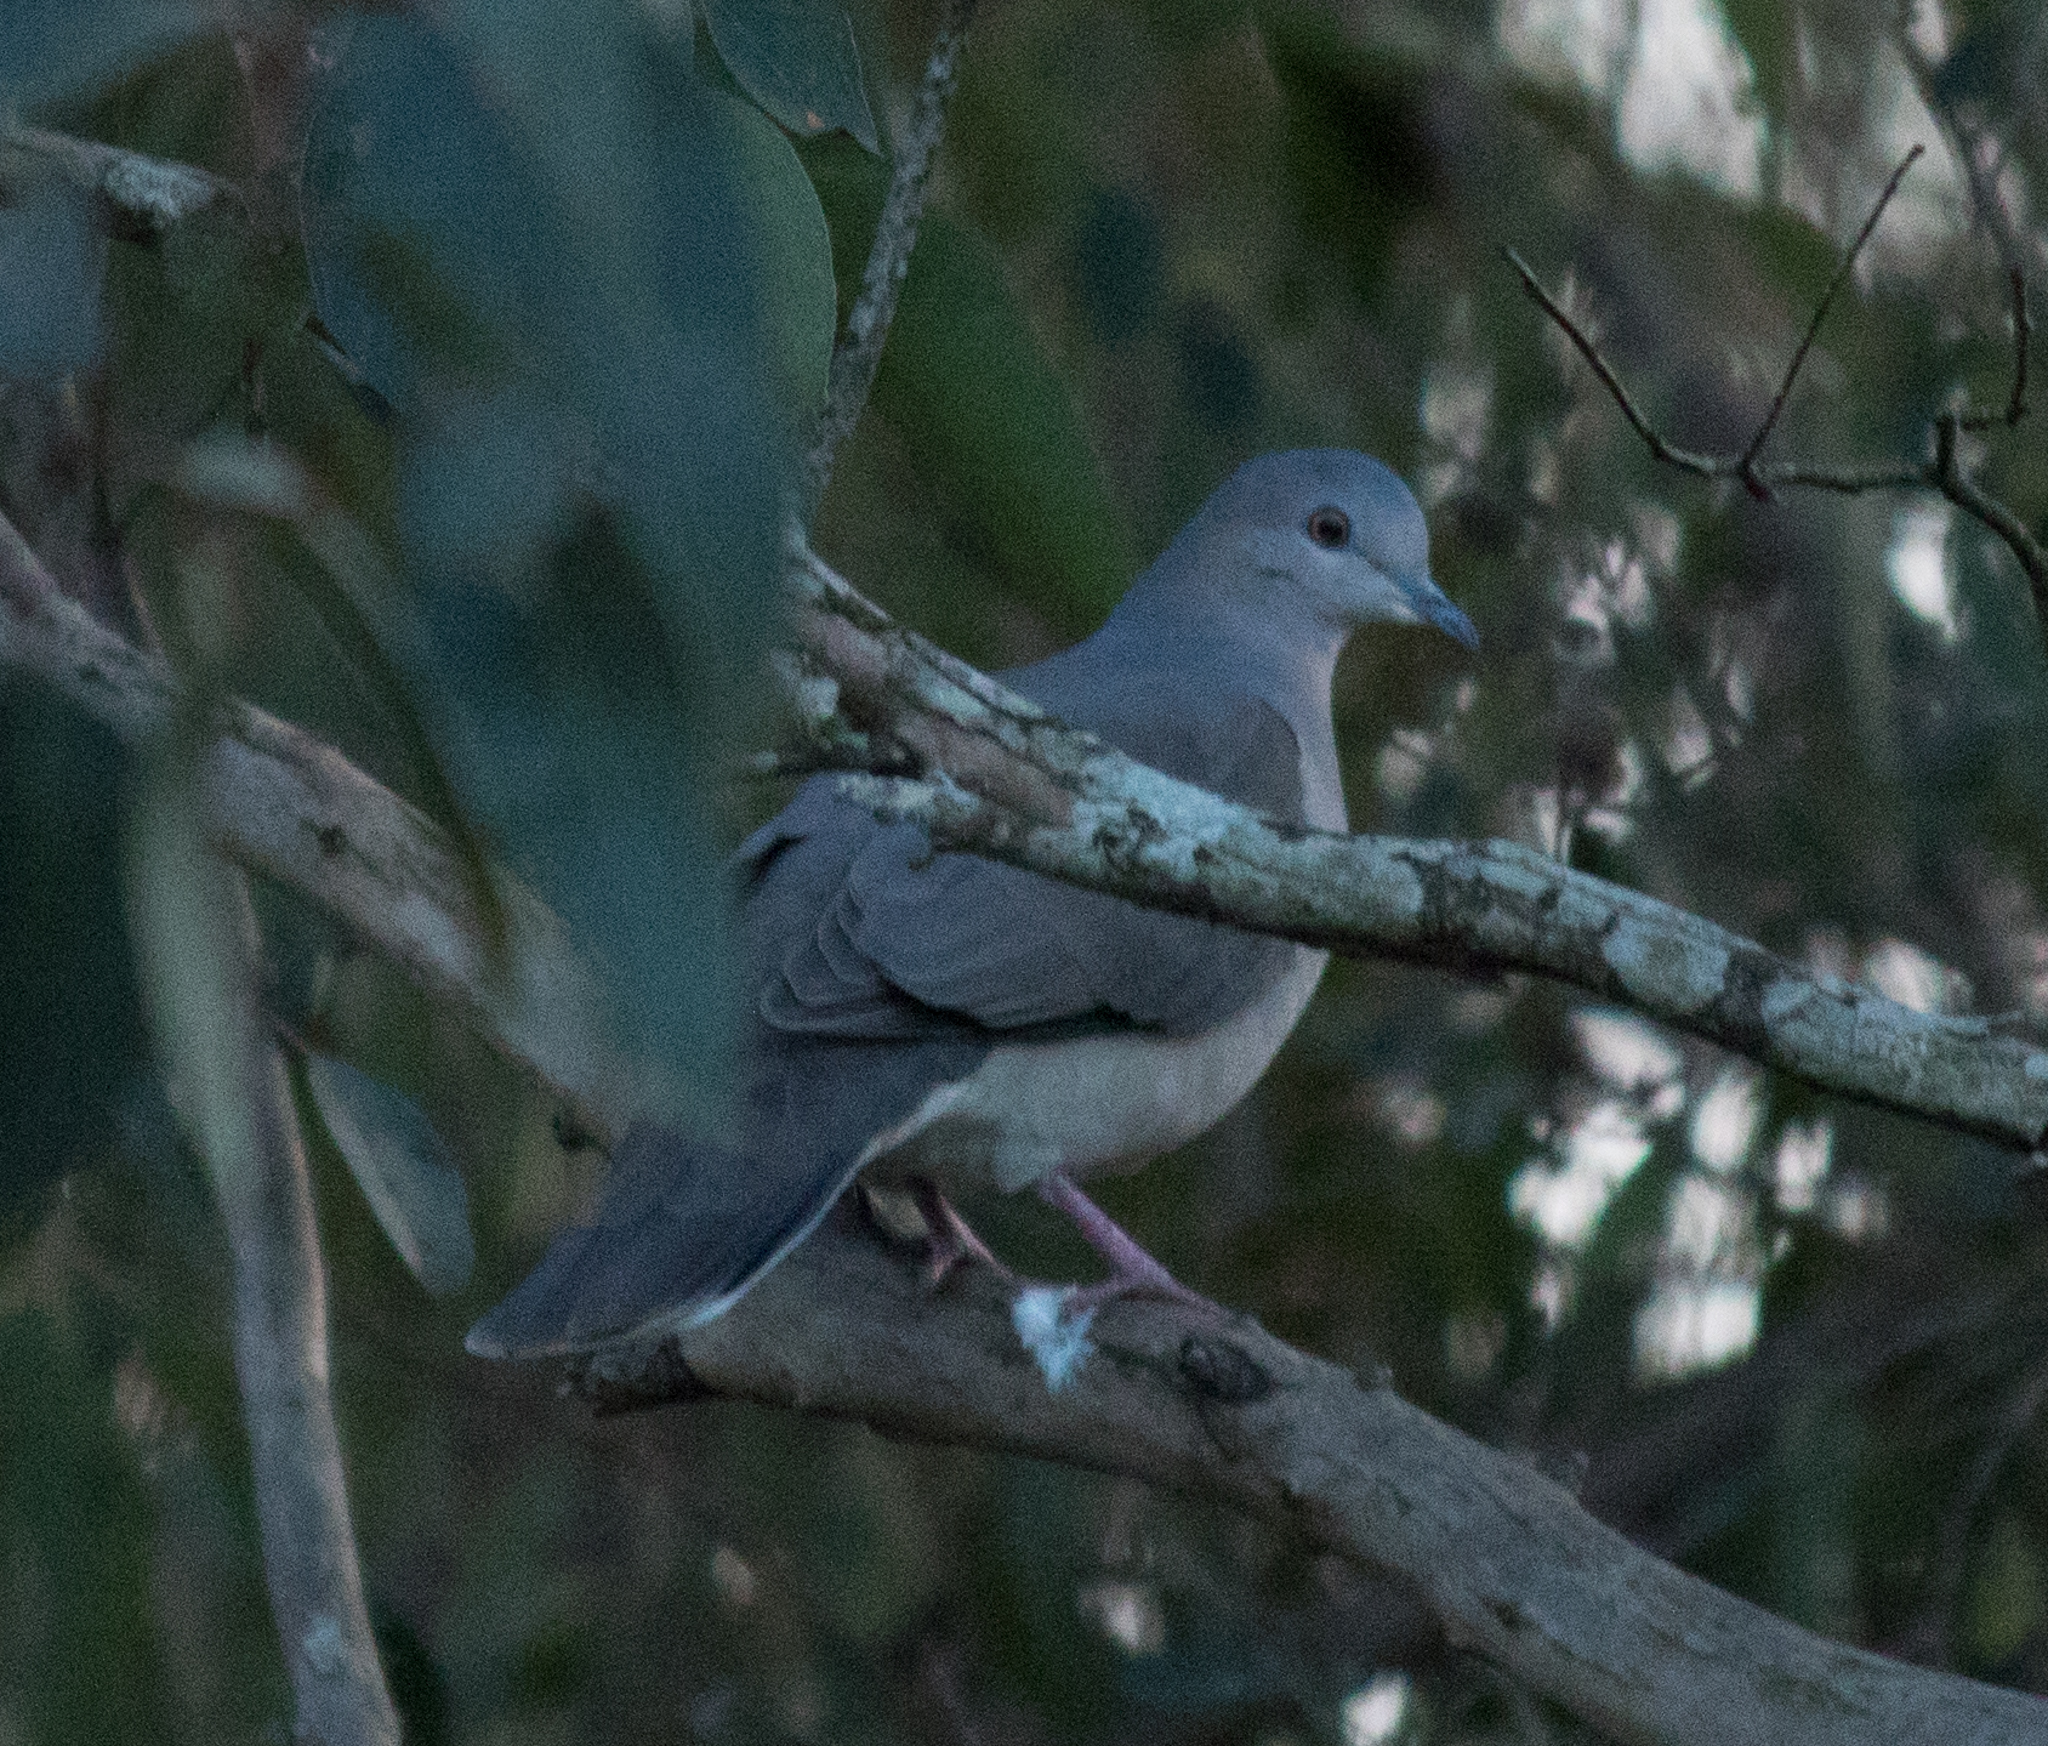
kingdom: Animalia
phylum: Chordata
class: Aves
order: Columbiformes
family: Columbidae
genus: Leptotila
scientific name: Leptotila verreauxi
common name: White-tipped dove
